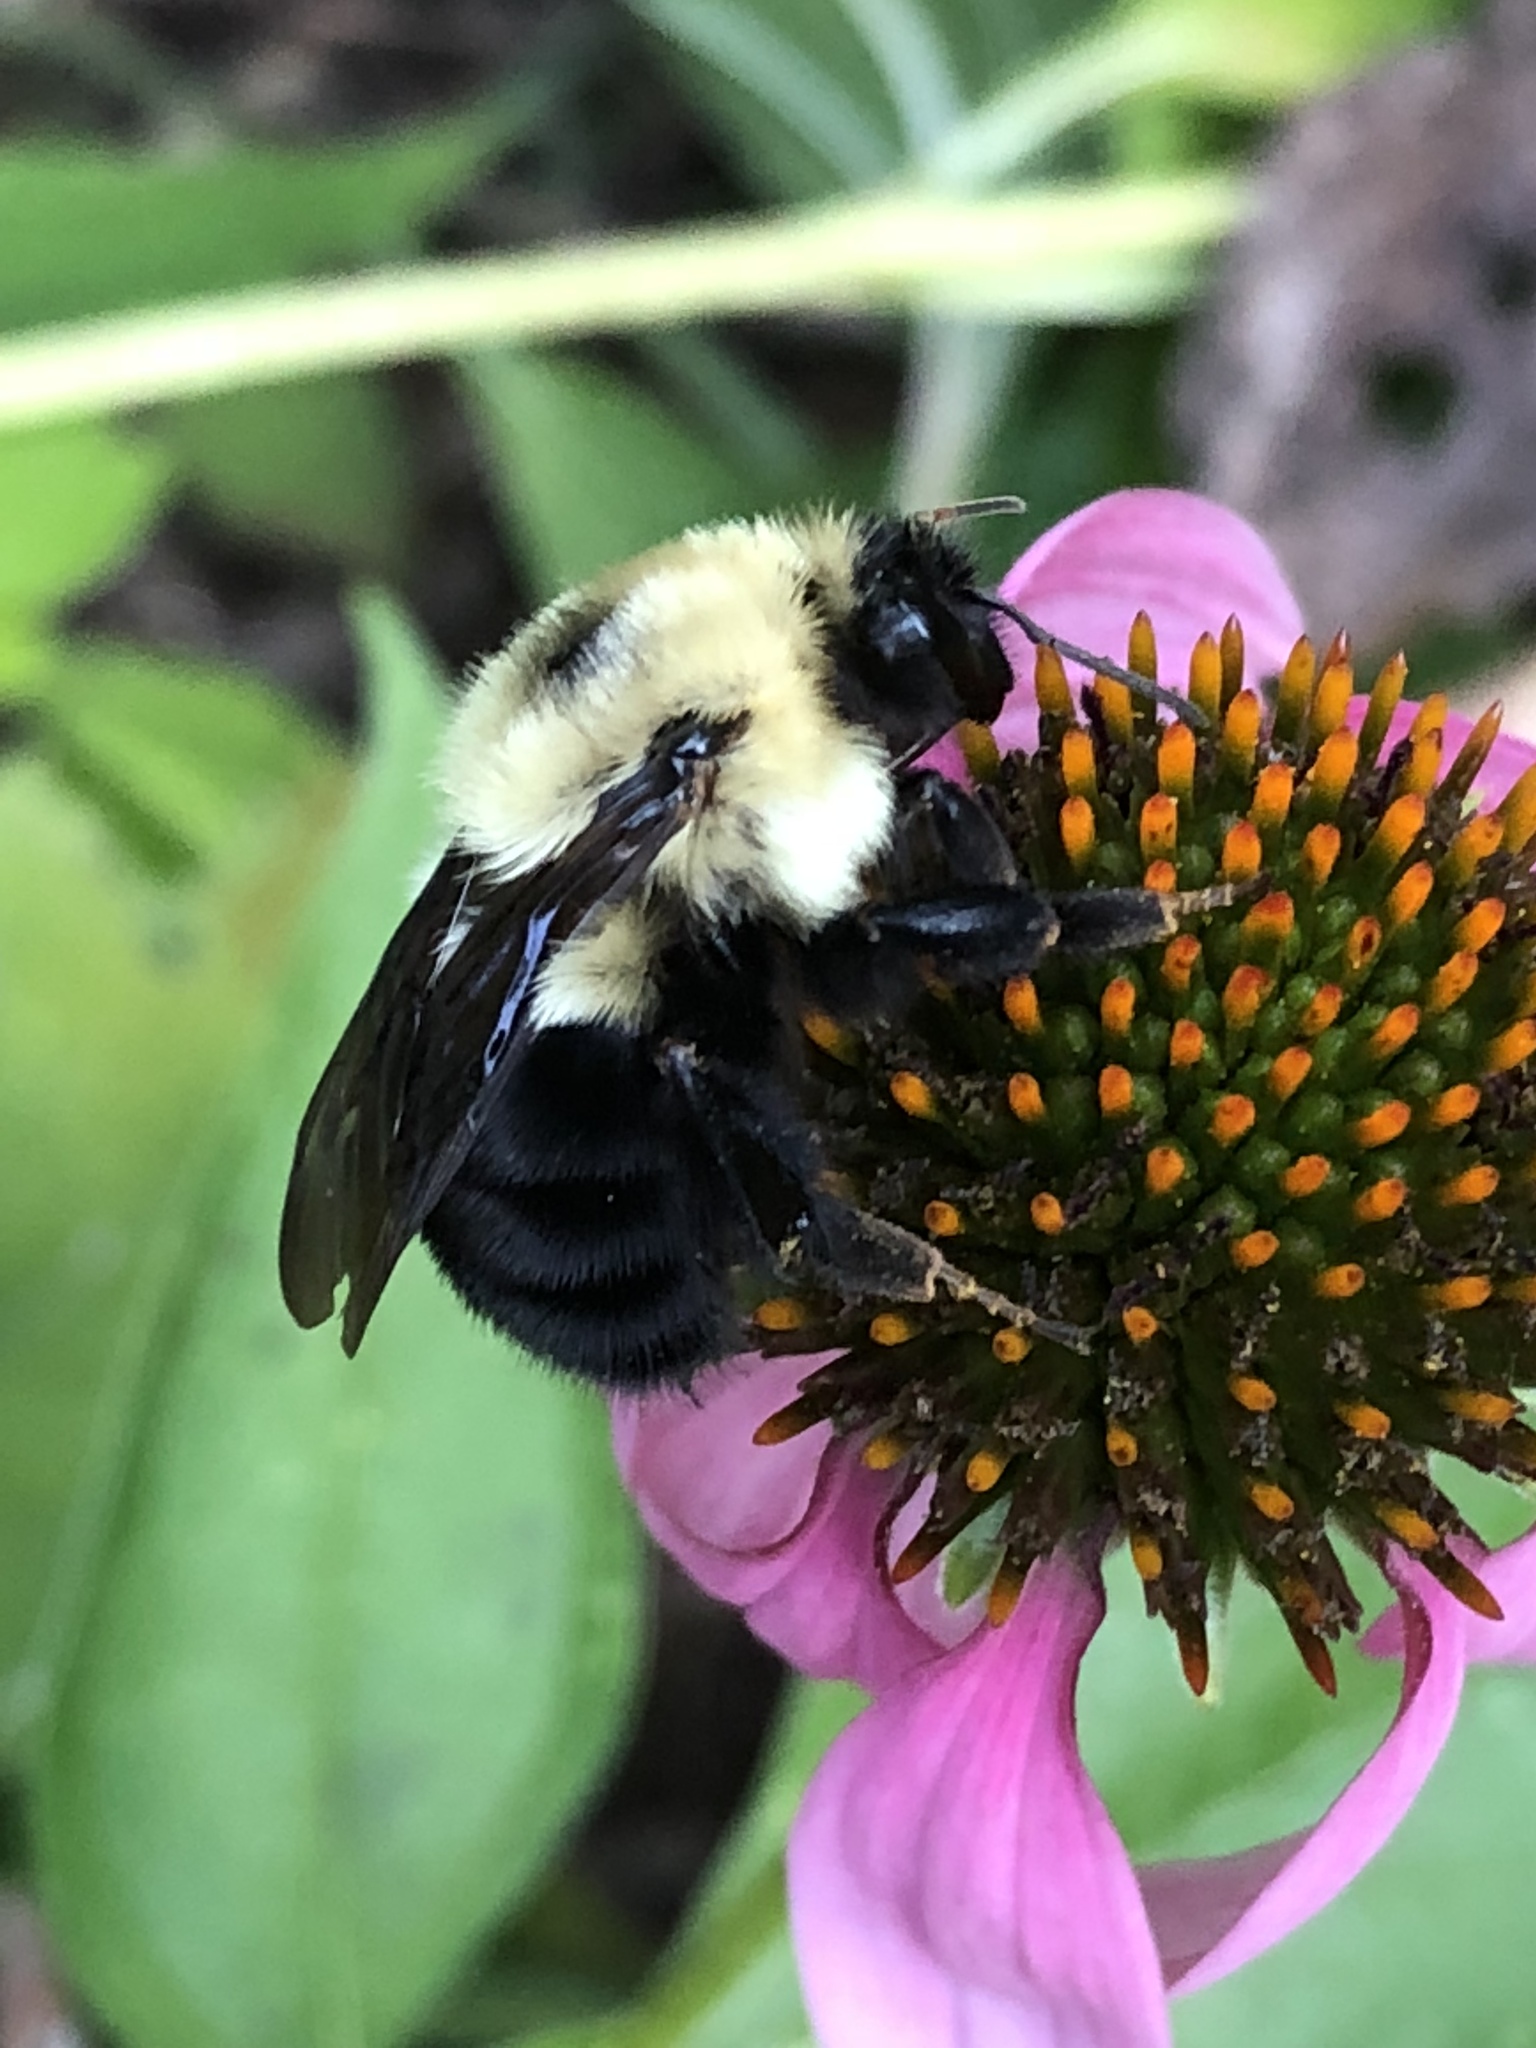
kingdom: Animalia
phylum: Arthropoda
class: Insecta
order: Hymenoptera
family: Apidae
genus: Bombus
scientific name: Bombus bimaculatus
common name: Two-spotted bumble bee
